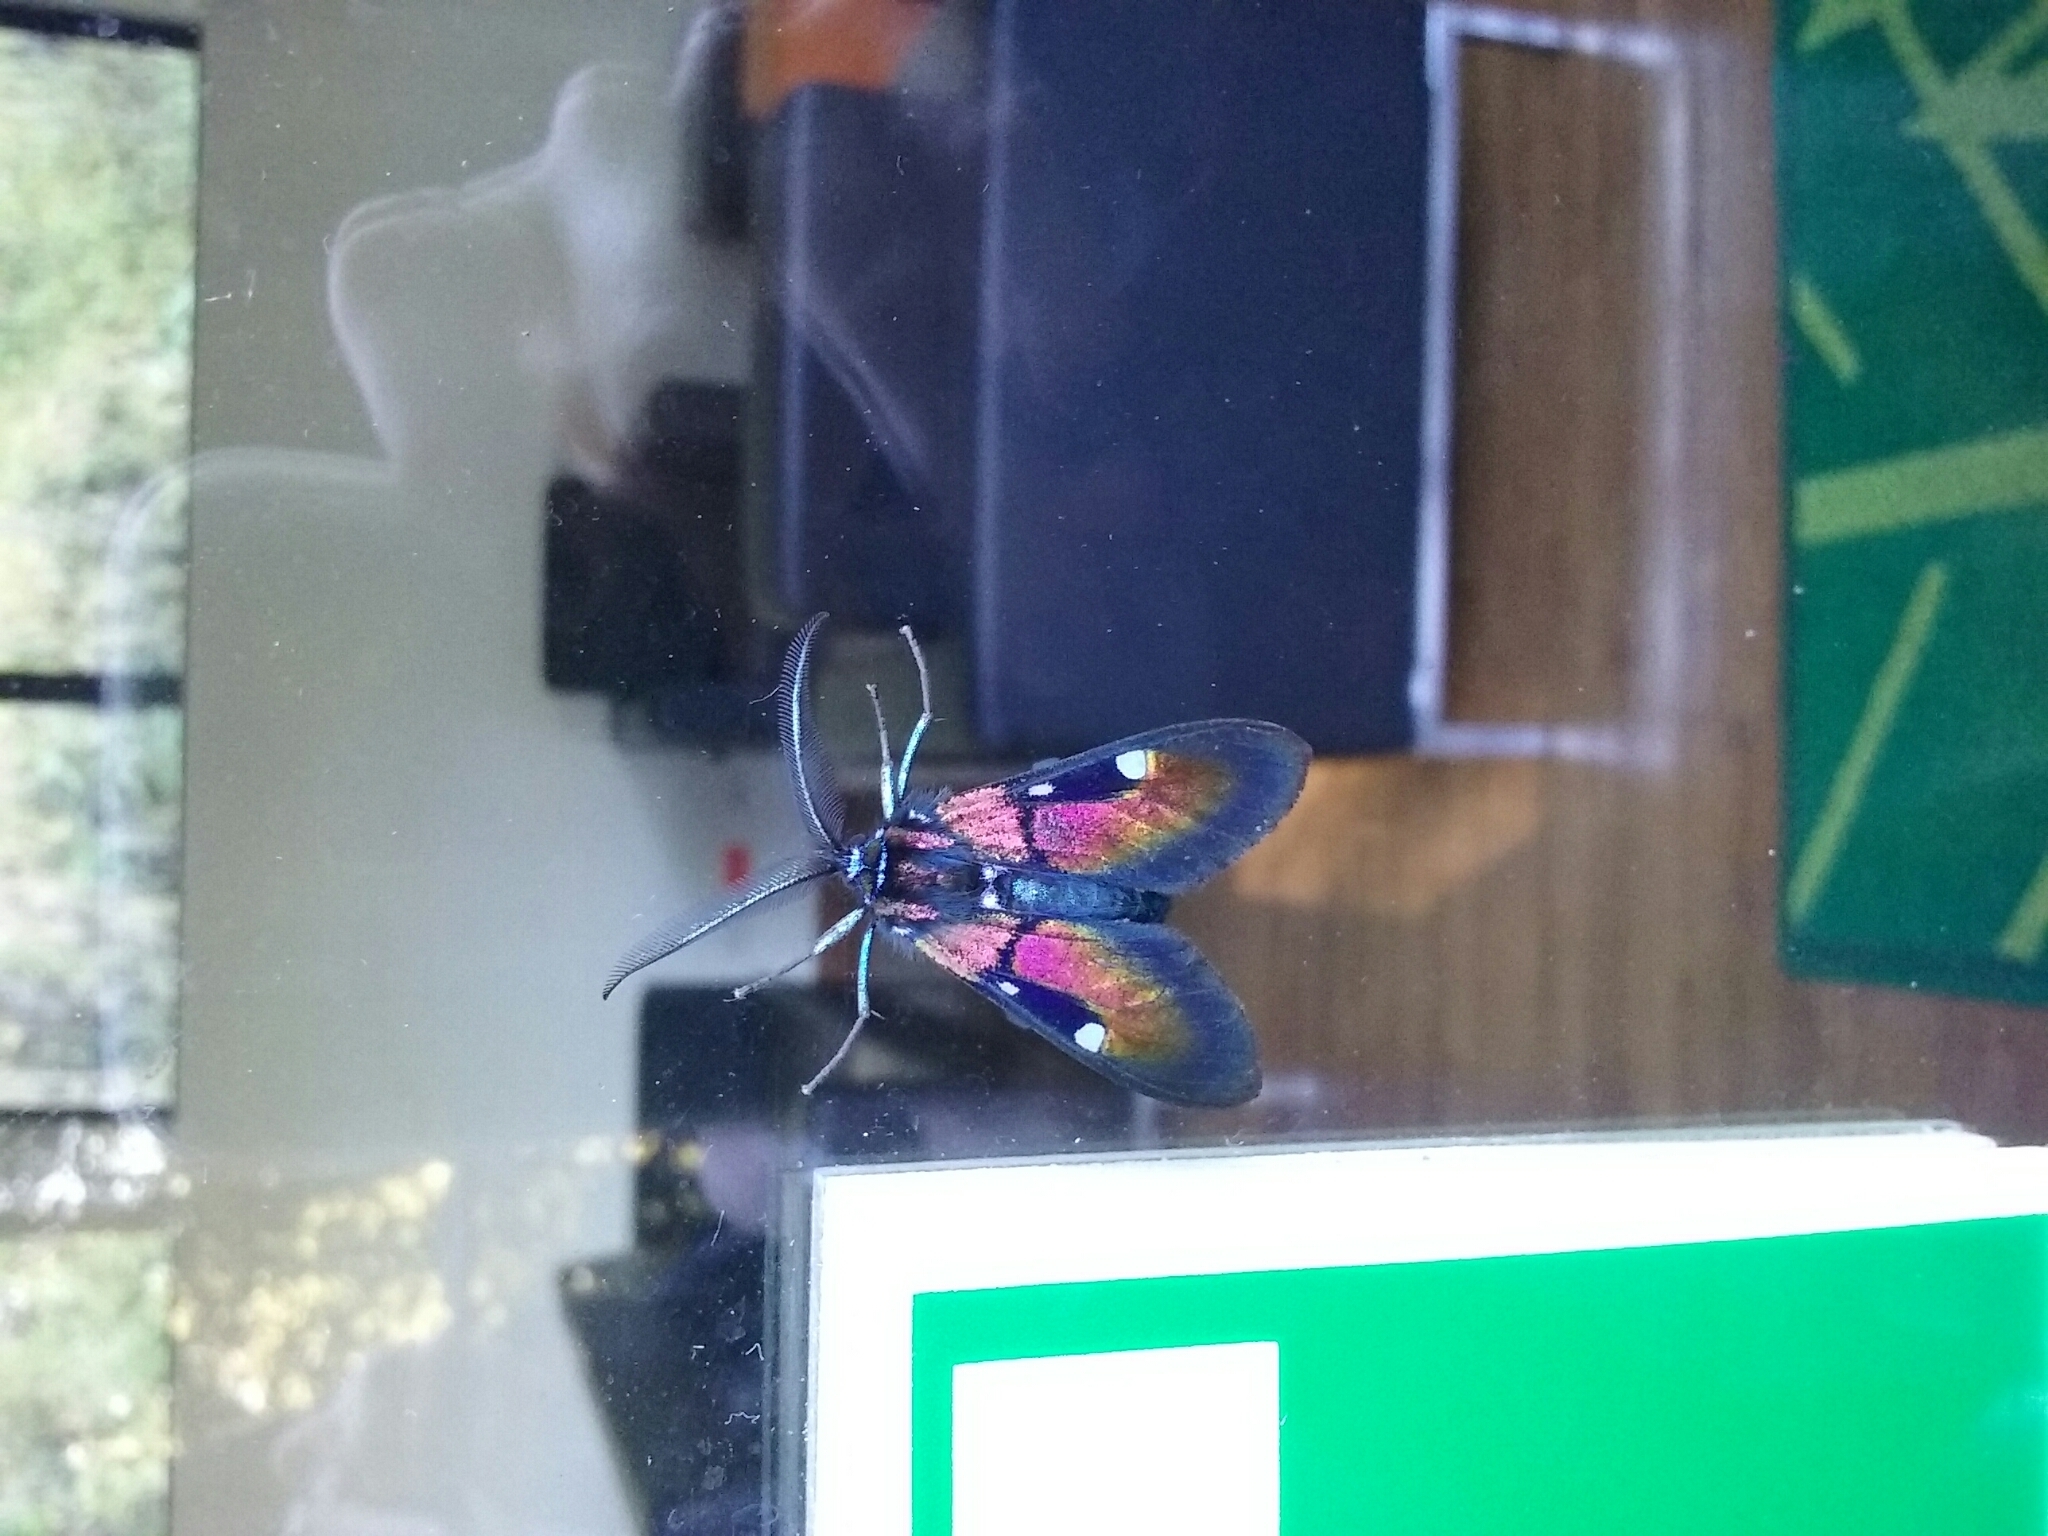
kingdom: Animalia
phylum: Arthropoda
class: Insecta
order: Lepidoptera
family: Erebidae
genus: Chrysocale
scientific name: Chrysocale ignita
